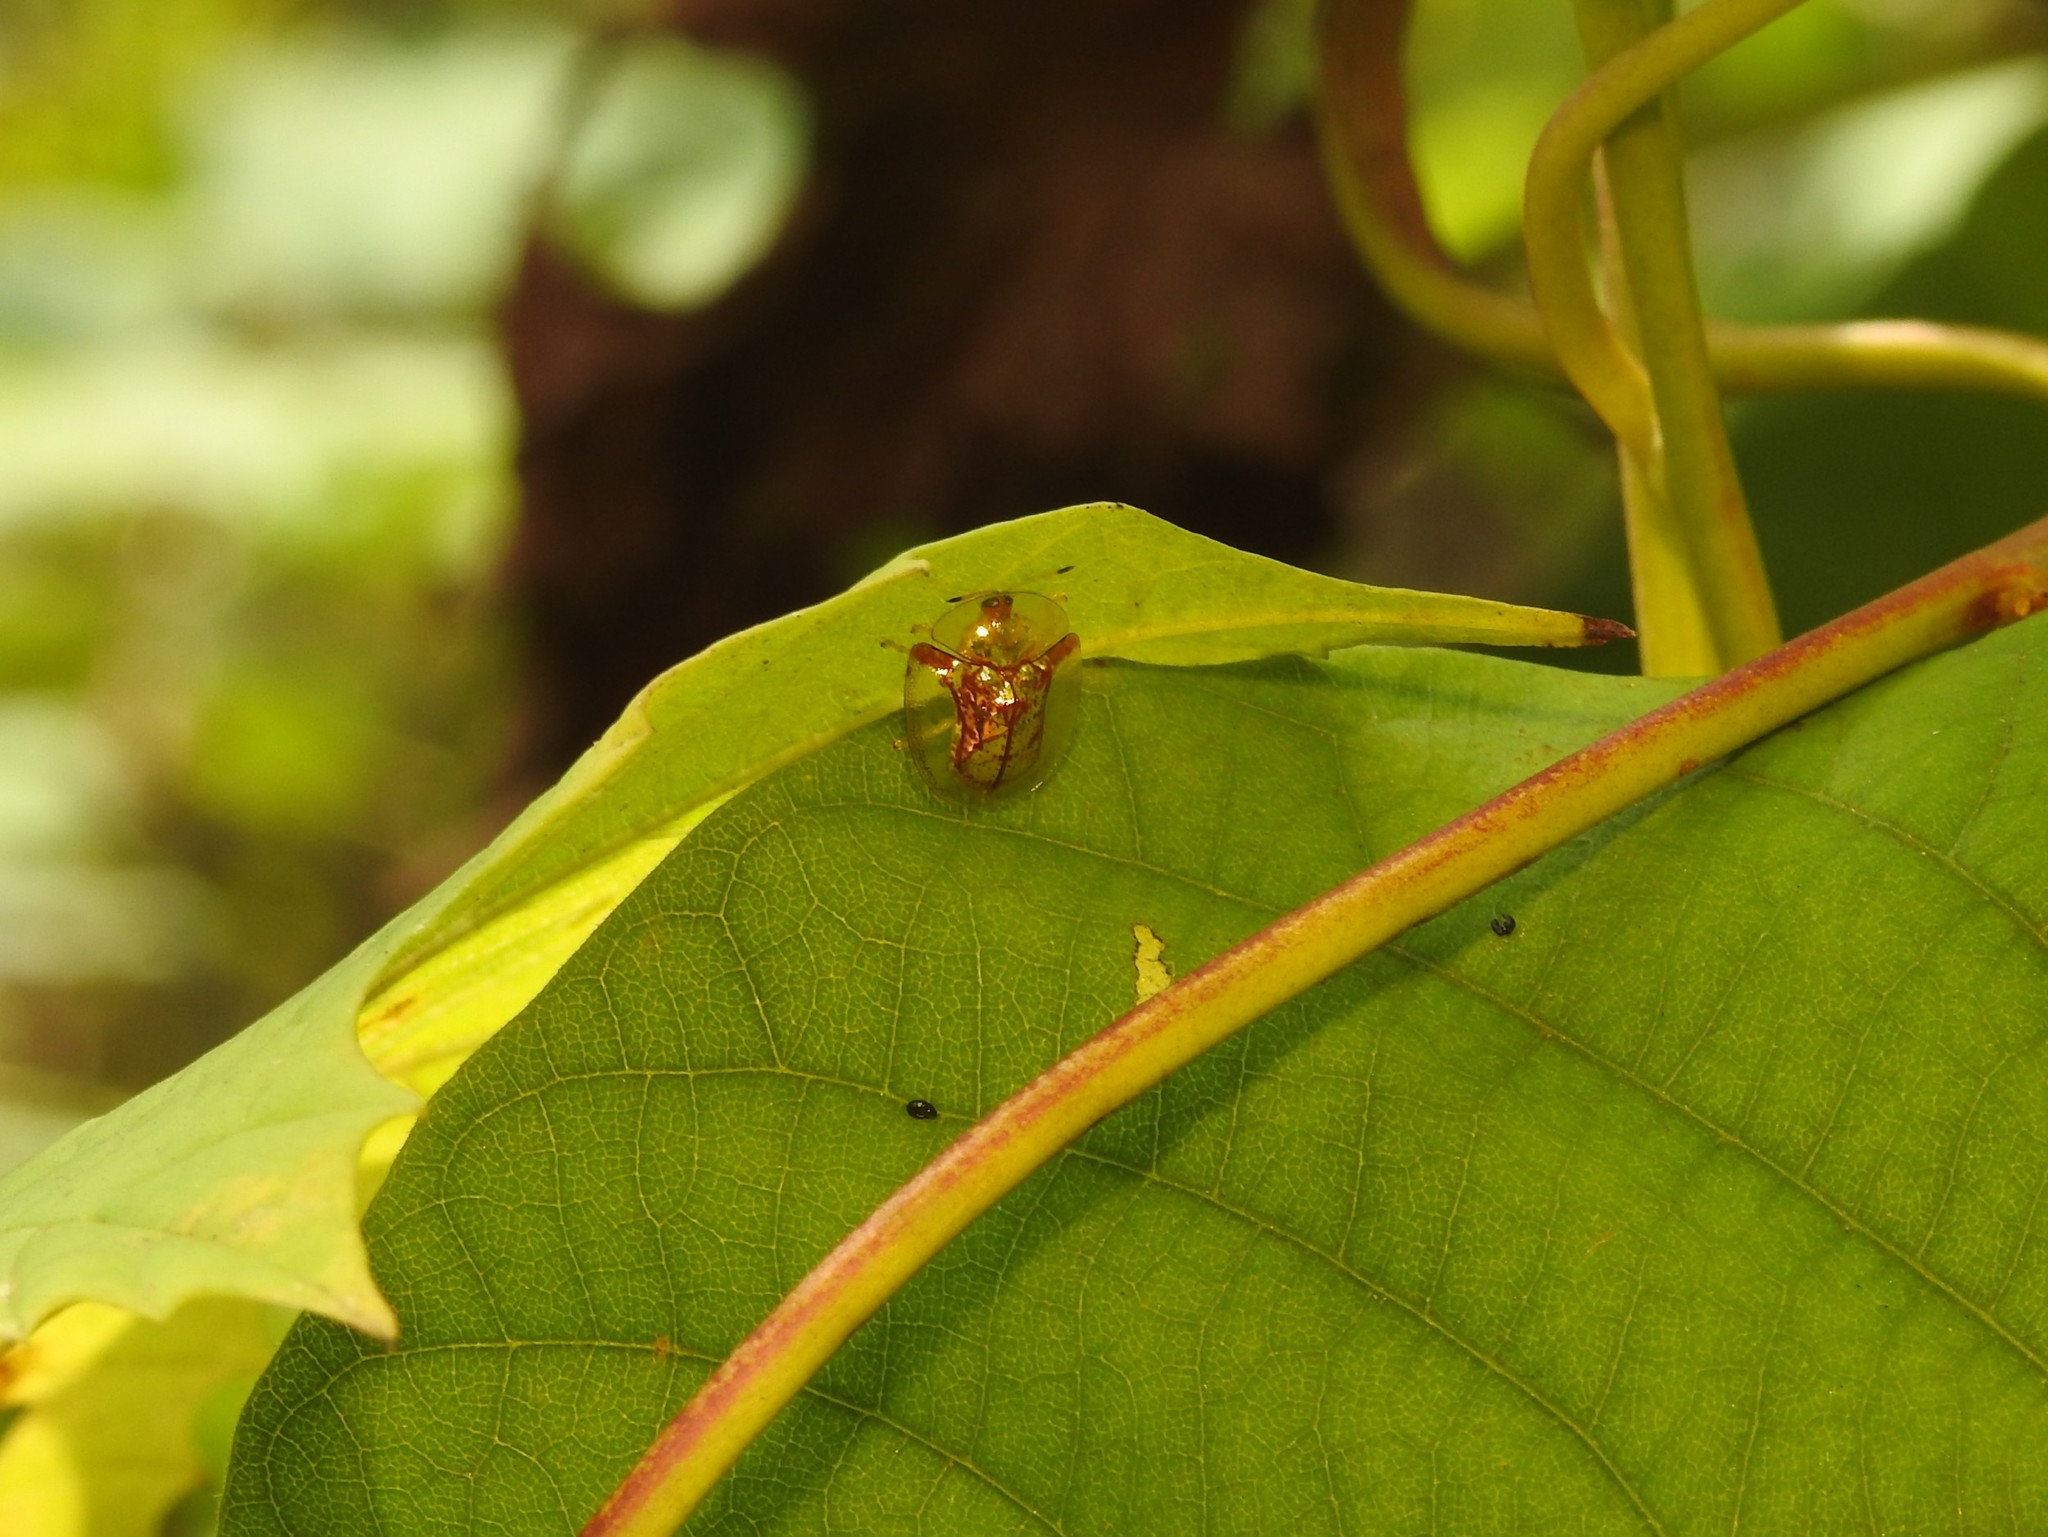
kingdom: Animalia
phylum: Arthropoda
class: Insecta
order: Coleoptera
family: Chrysomelidae
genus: Aspidimorpha
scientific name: Aspidimorpha furcata
